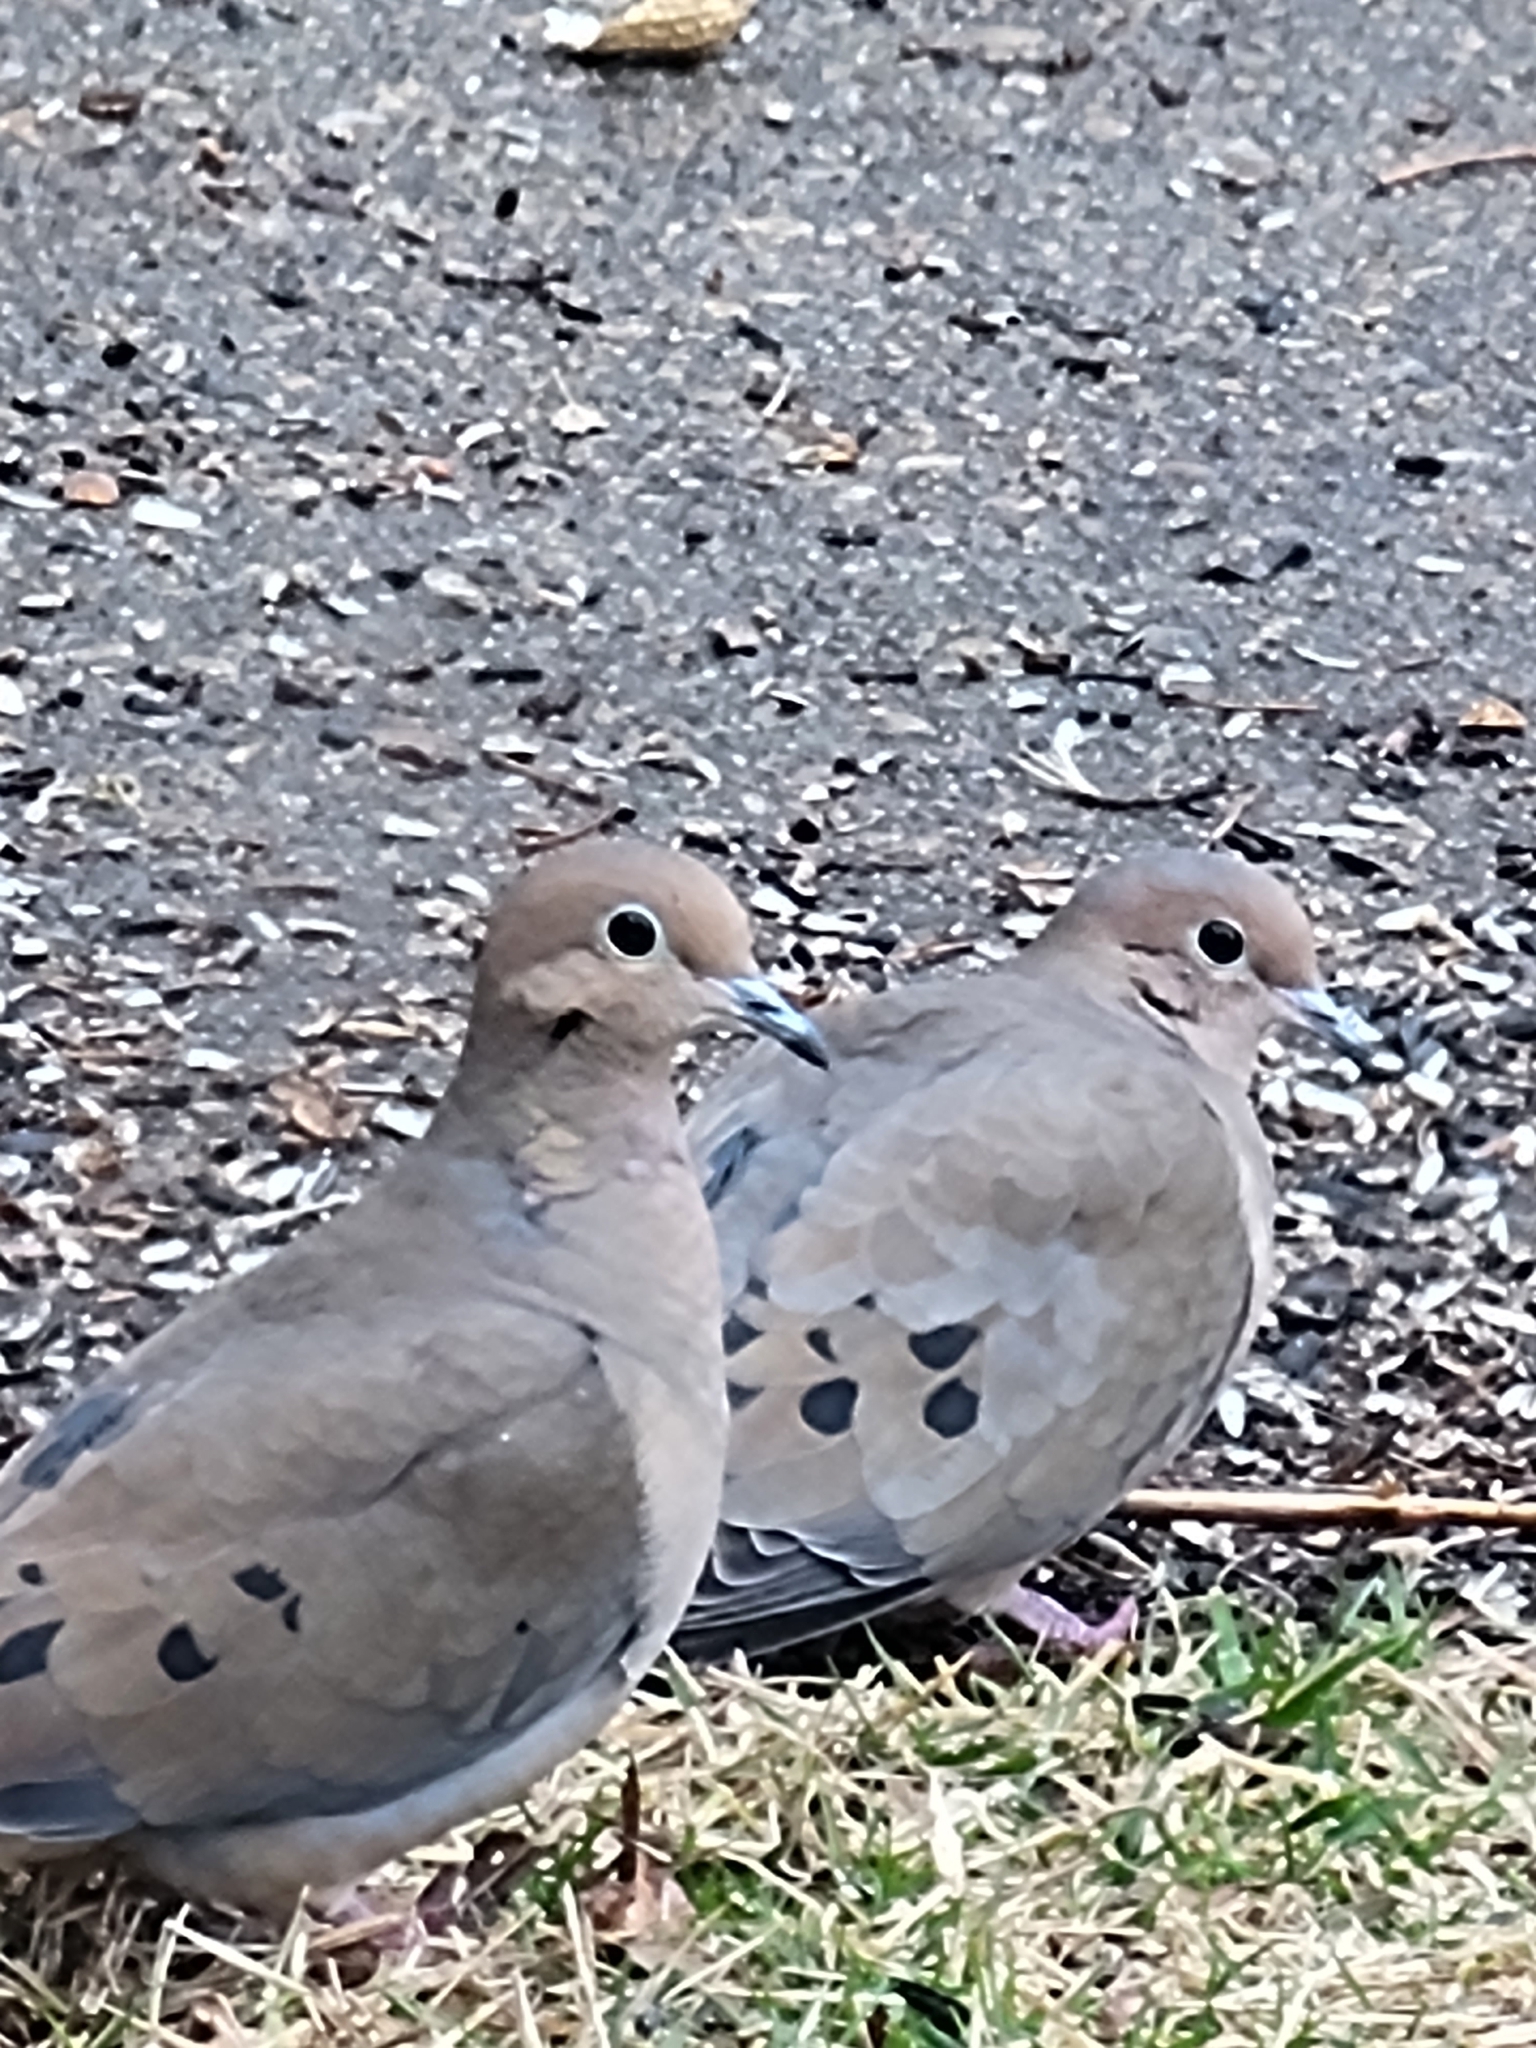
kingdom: Animalia
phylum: Chordata
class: Aves
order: Columbiformes
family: Columbidae
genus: Zenaida
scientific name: Zenaida macroura
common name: Mourning dove
